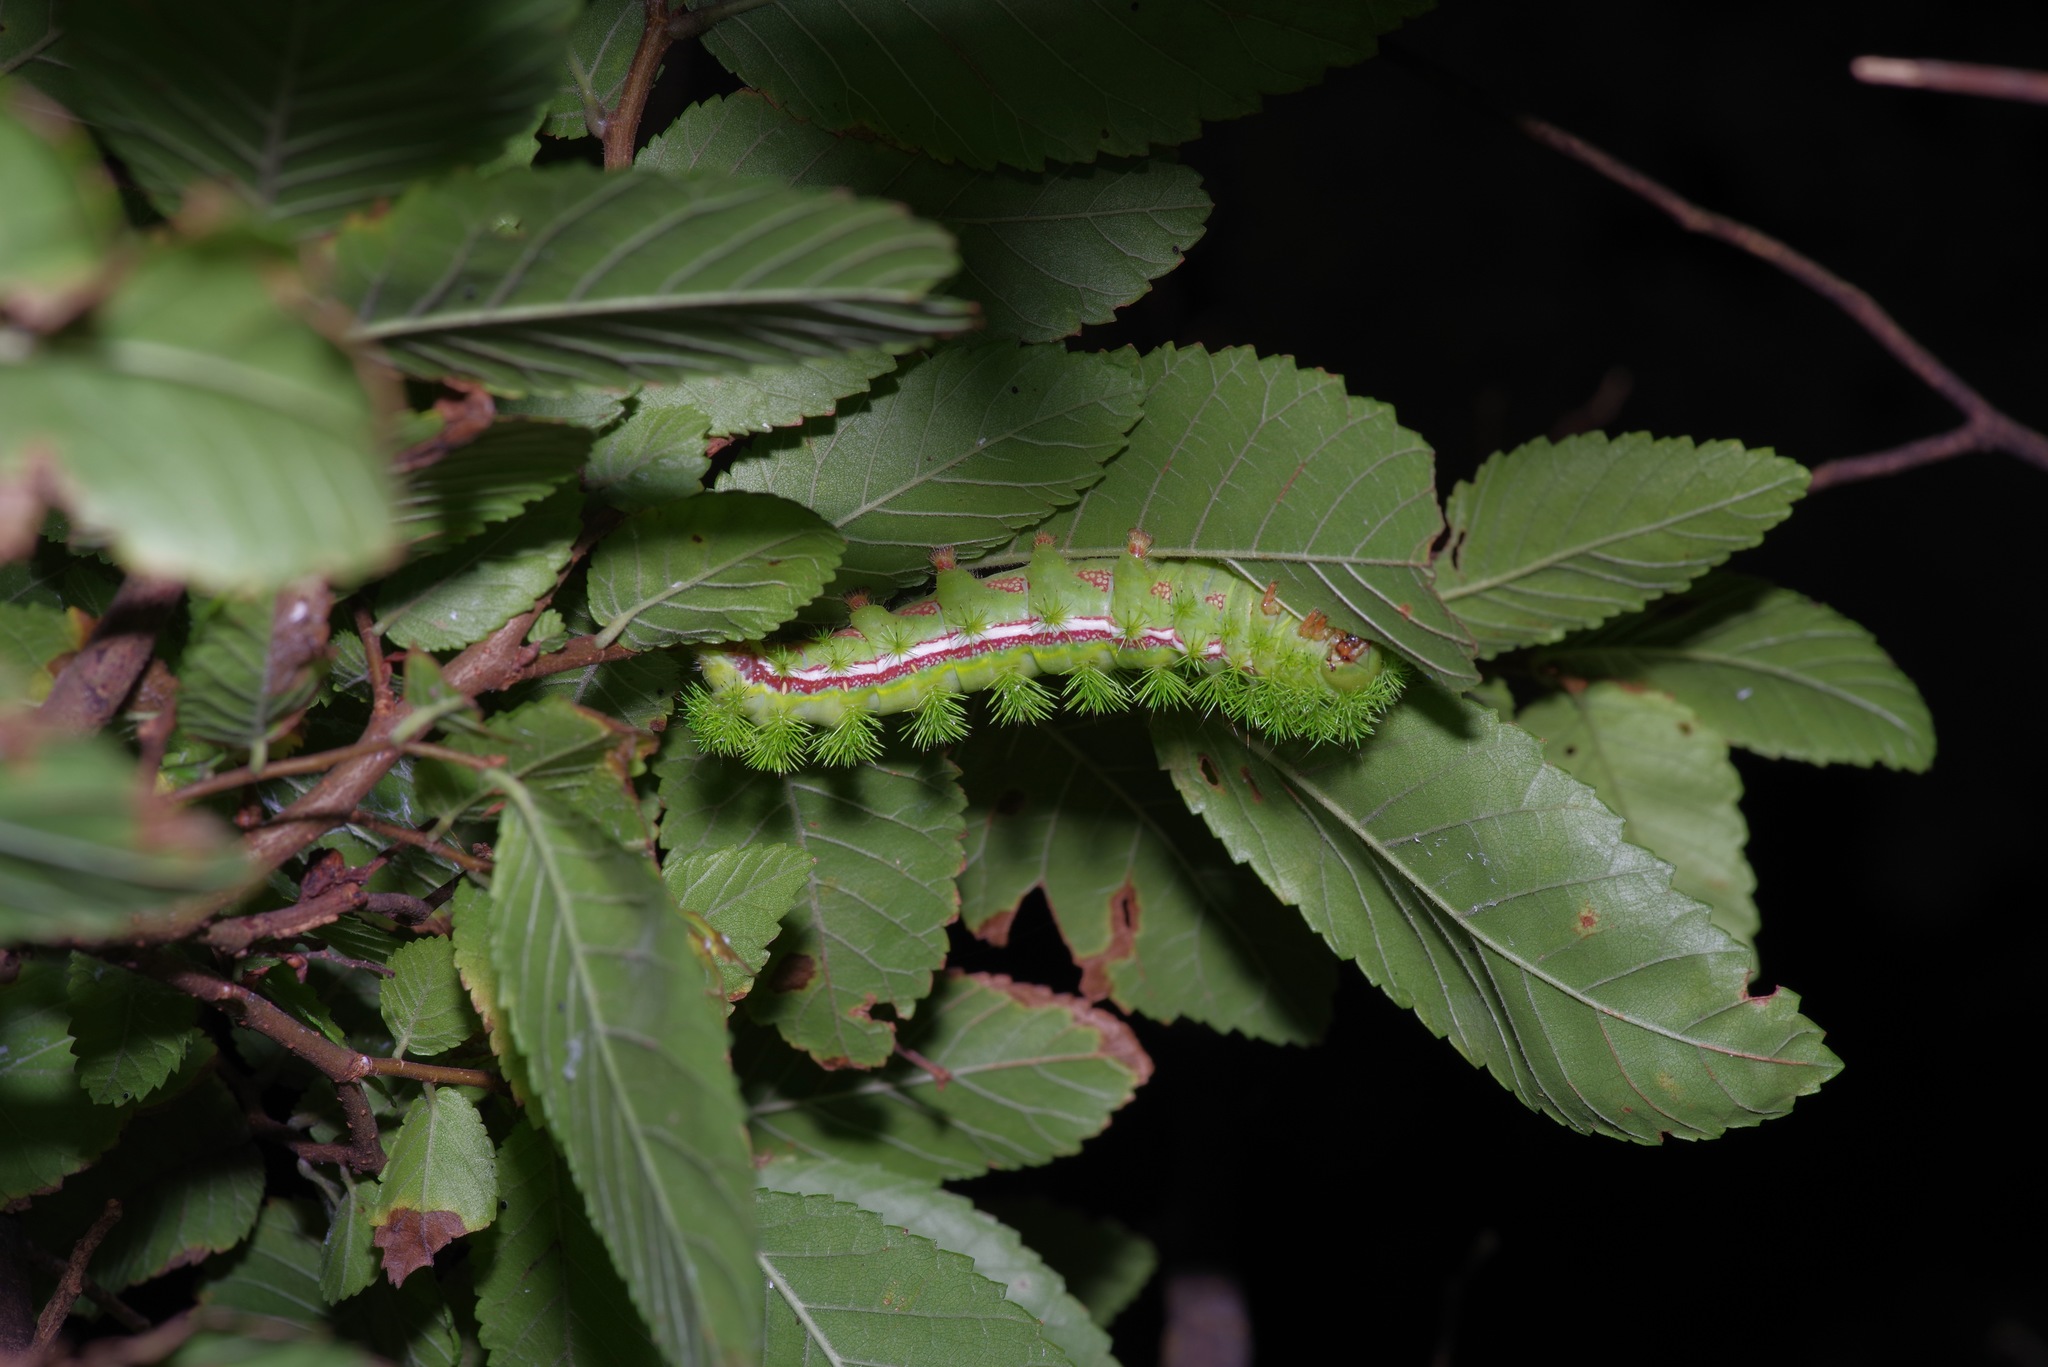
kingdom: Animalia
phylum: Arthropoda
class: Insecta
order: Lepidoptera
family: Saturniidae
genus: Automeris
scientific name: Automeris io
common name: Io moth
